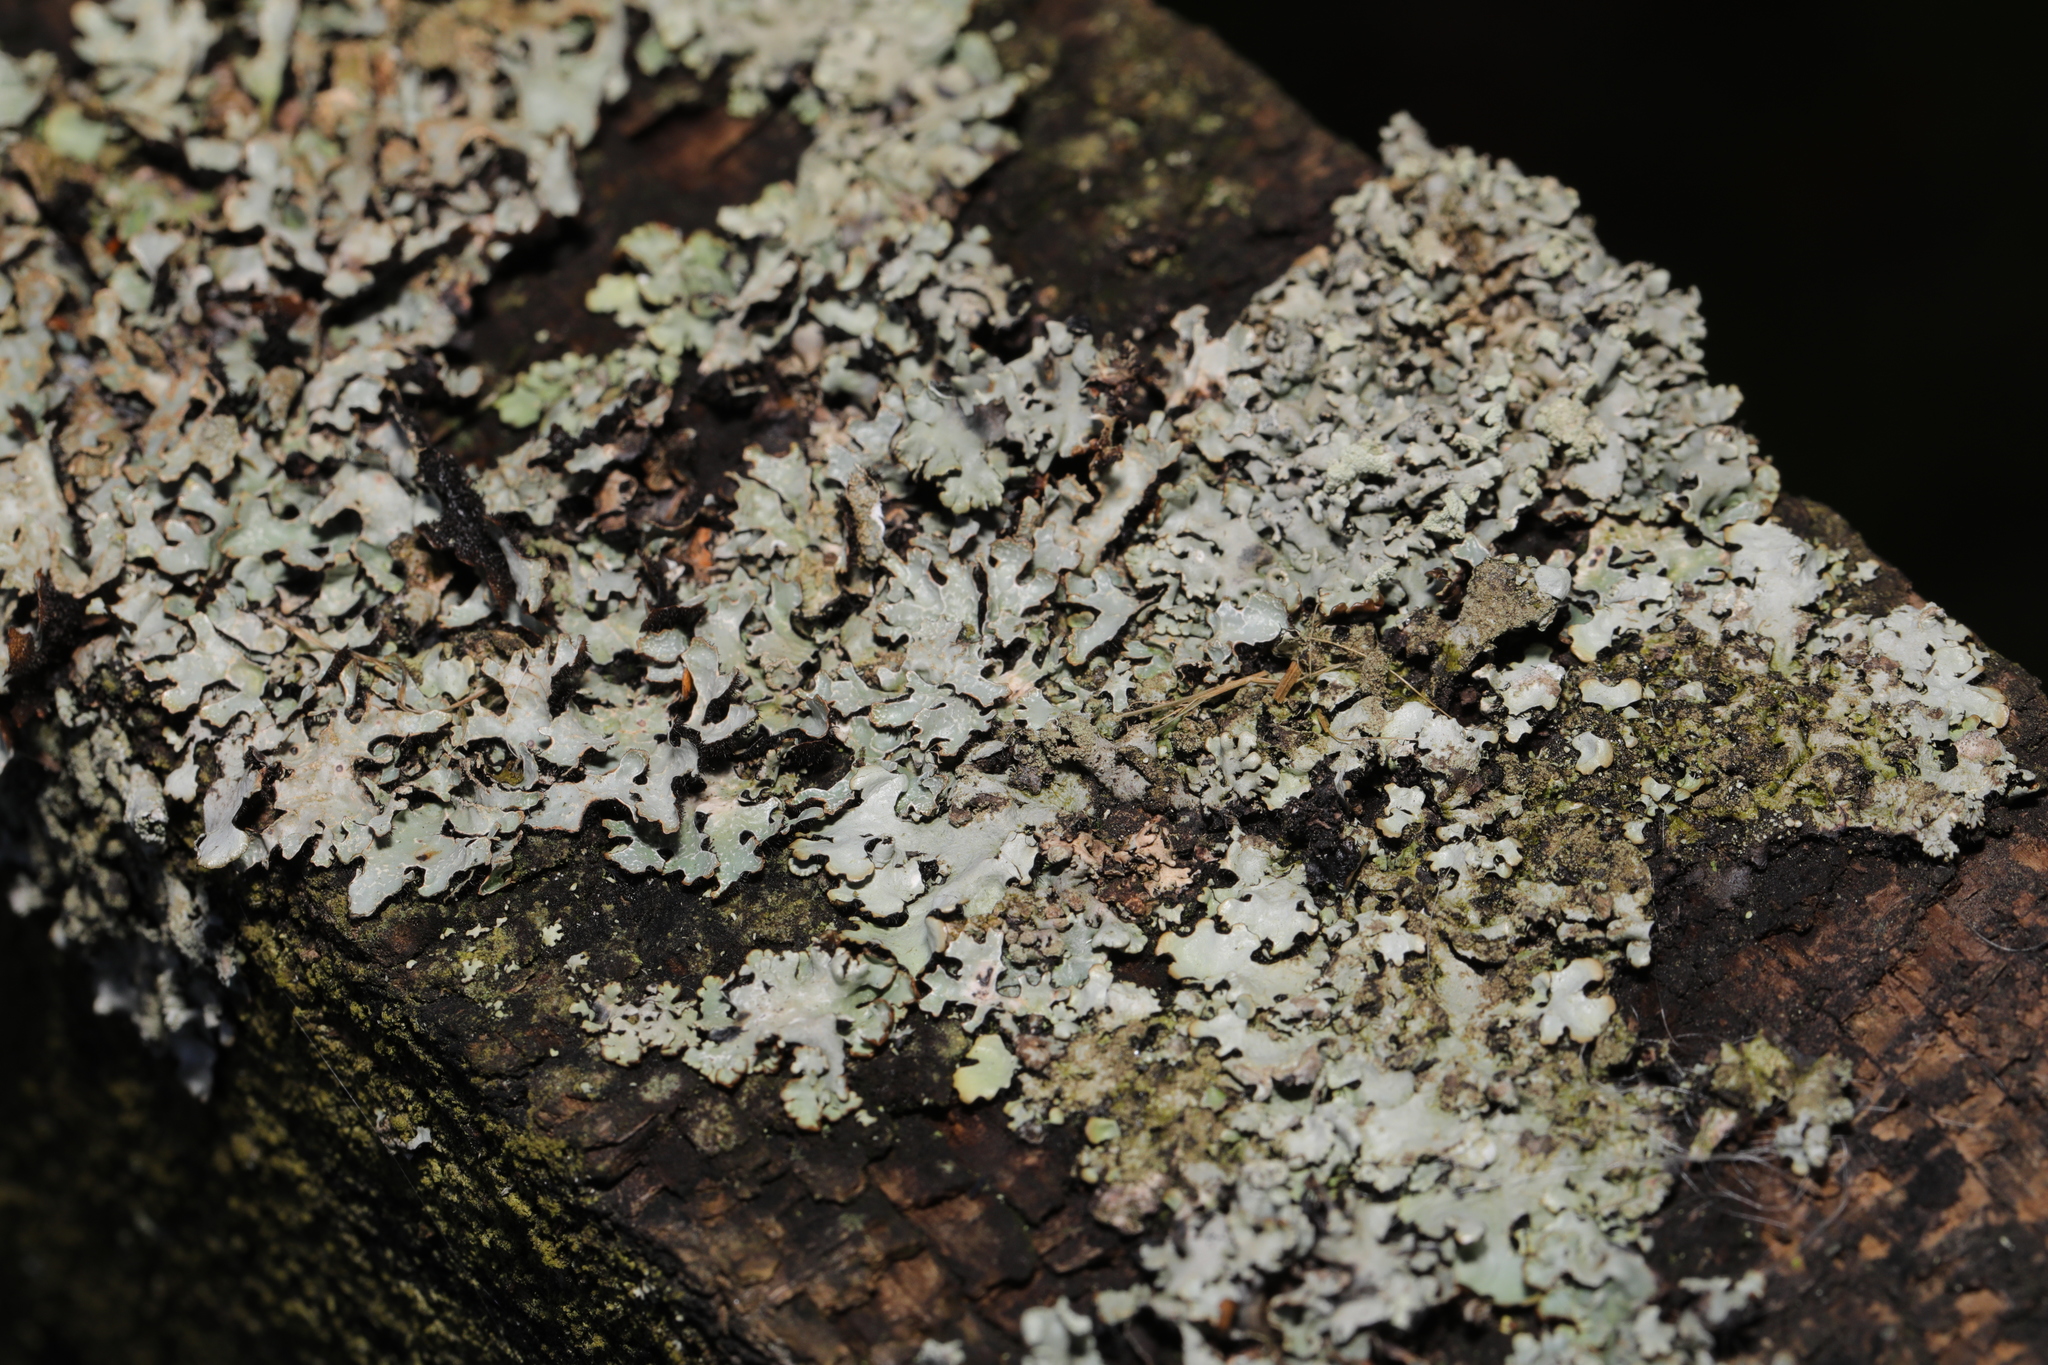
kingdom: Fungi
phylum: Ascomycota
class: Lecanoromycetes
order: Lecanorales
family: Parmeliaceae
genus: Parmelia
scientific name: Parmelia sulcata
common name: Netted shield lichen
